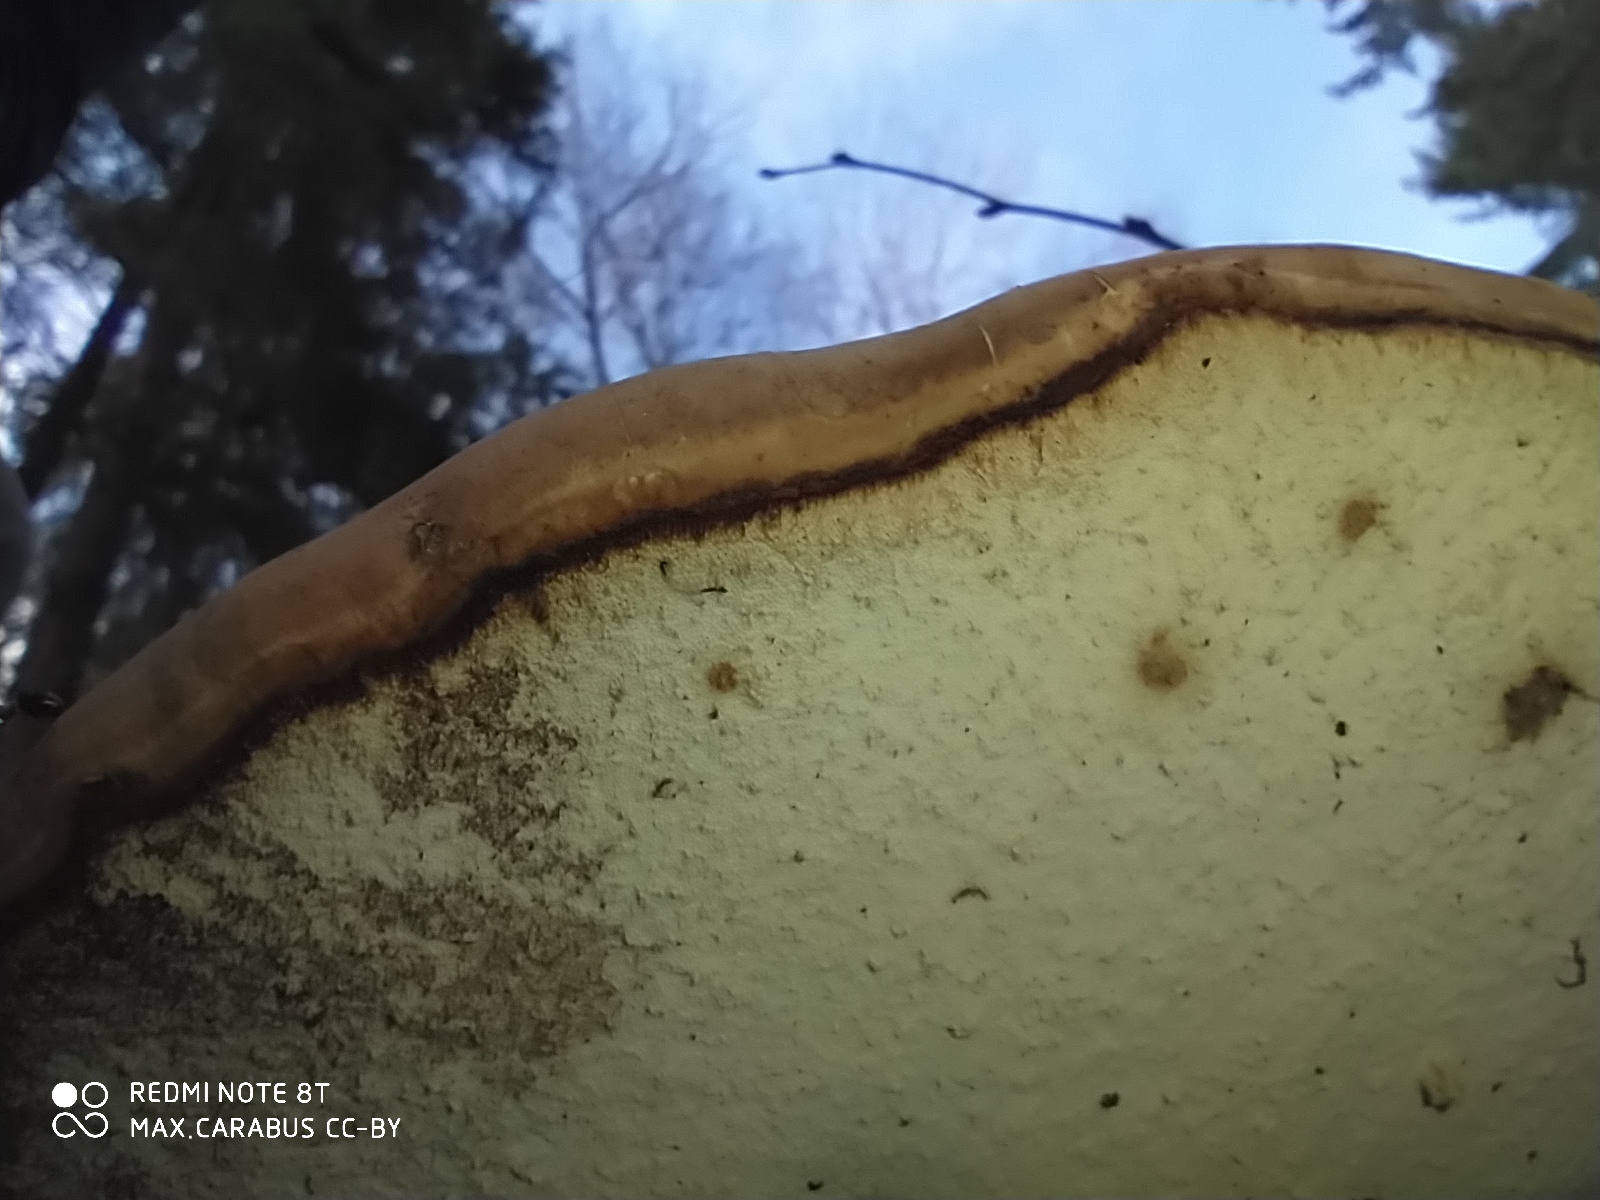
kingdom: Fungi
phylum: Basidiomycota
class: Agaricomycetes
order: Polyporales
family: Fomitopsidaceae
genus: Fomitopsis
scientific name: Fomitopsis betulina
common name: Birch polypore
